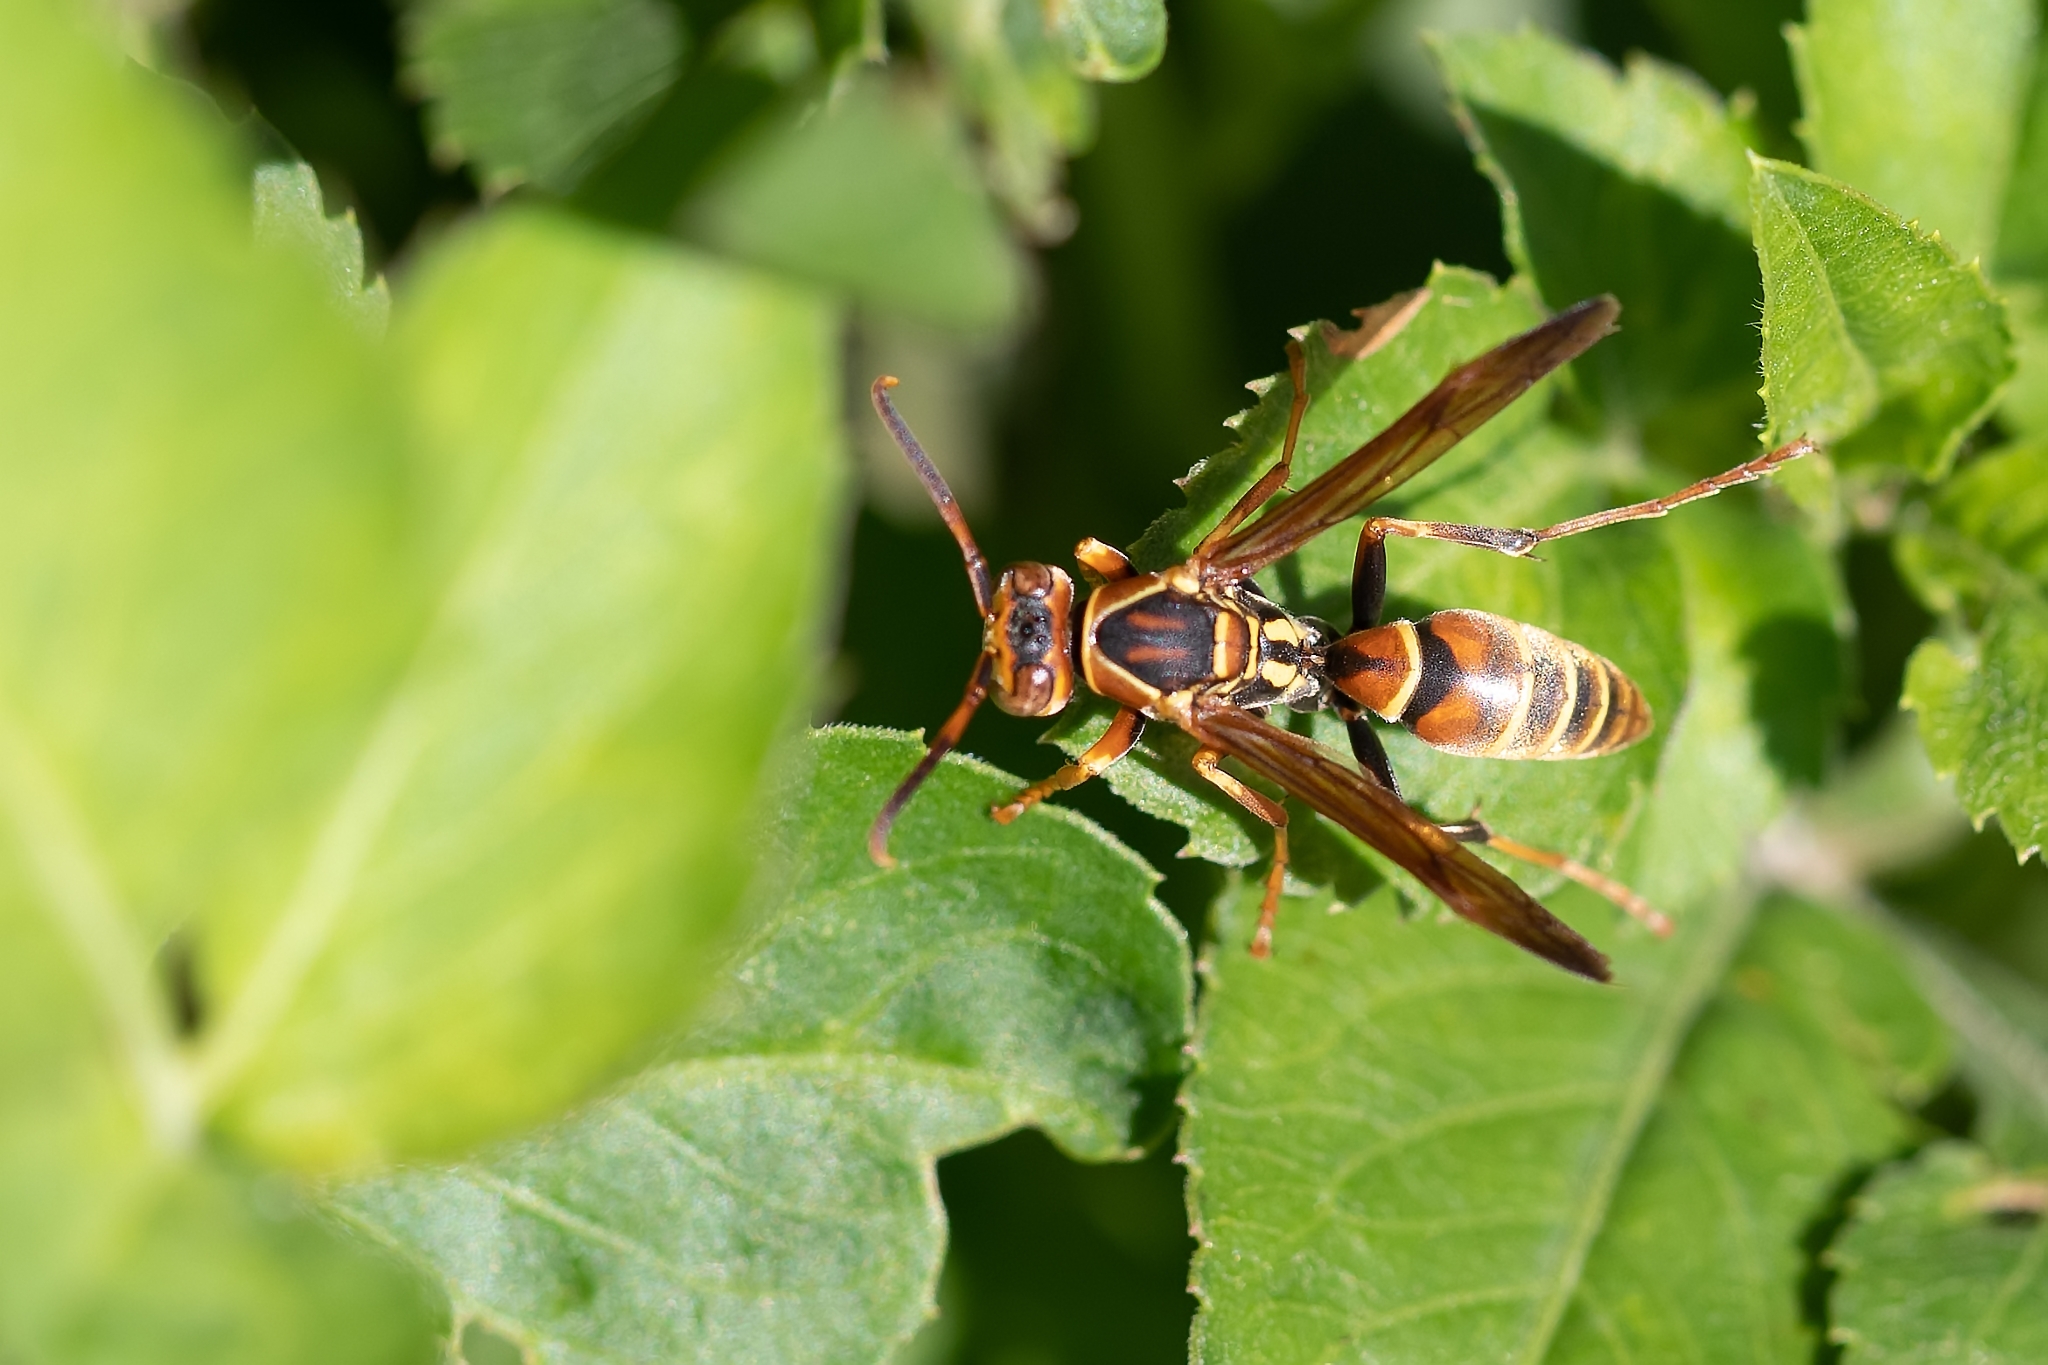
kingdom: Animalia
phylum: Arthropoda
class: Insecta
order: Hymenoptera
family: Eumenidae
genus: Polistes
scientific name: Polistes dorsalis
